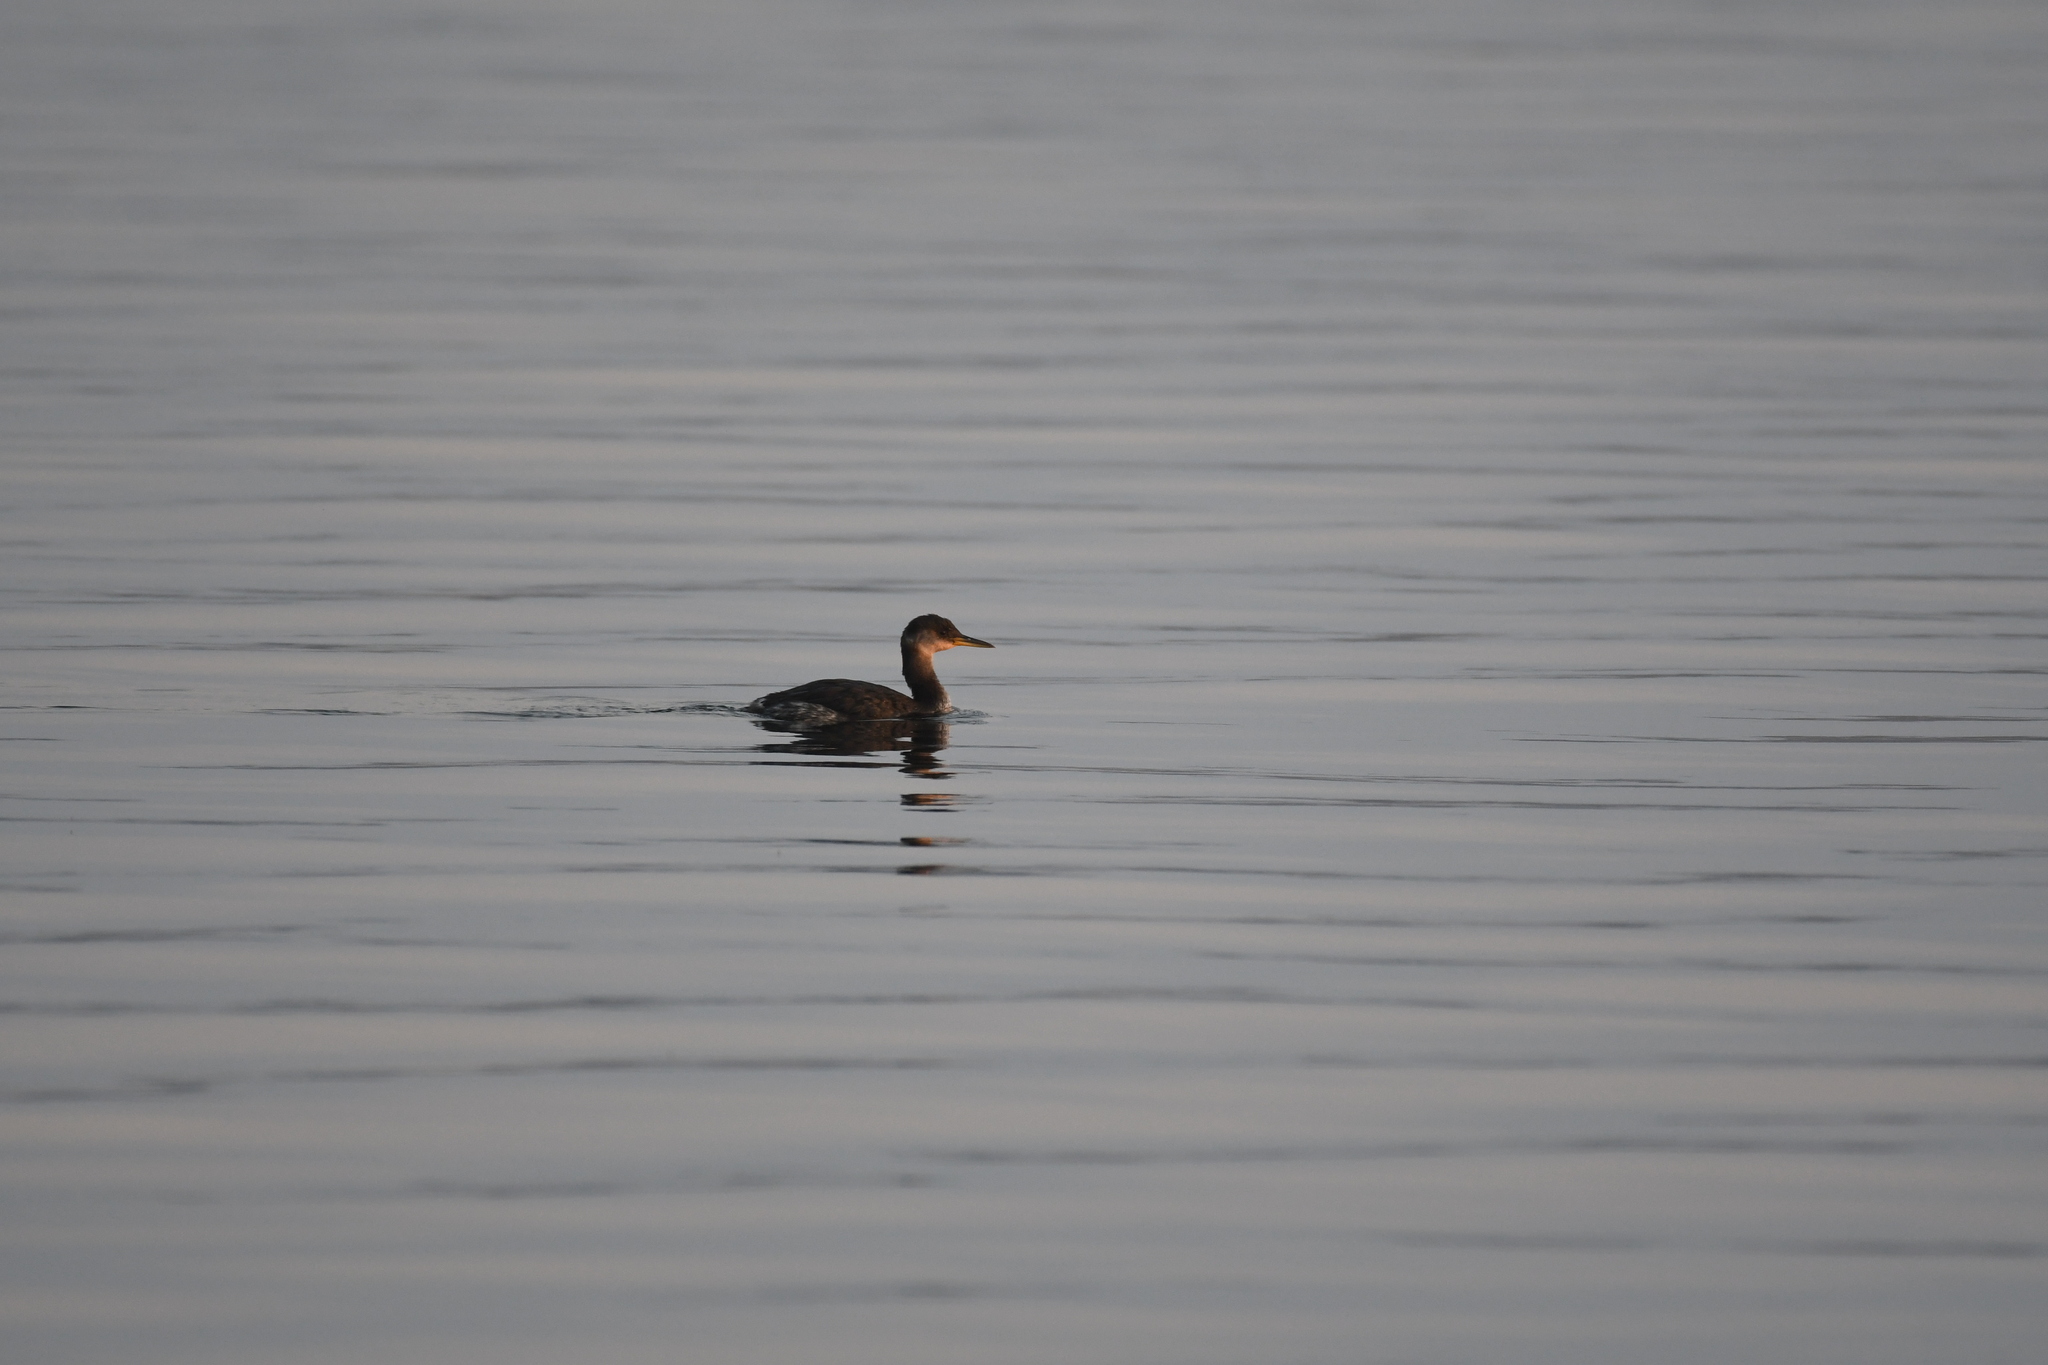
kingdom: Animalia
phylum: Chordata
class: Aves
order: Podicipediformes
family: Podicipedidae
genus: Podiceps
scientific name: Podiceps grisegena
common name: Red-necked grebe
